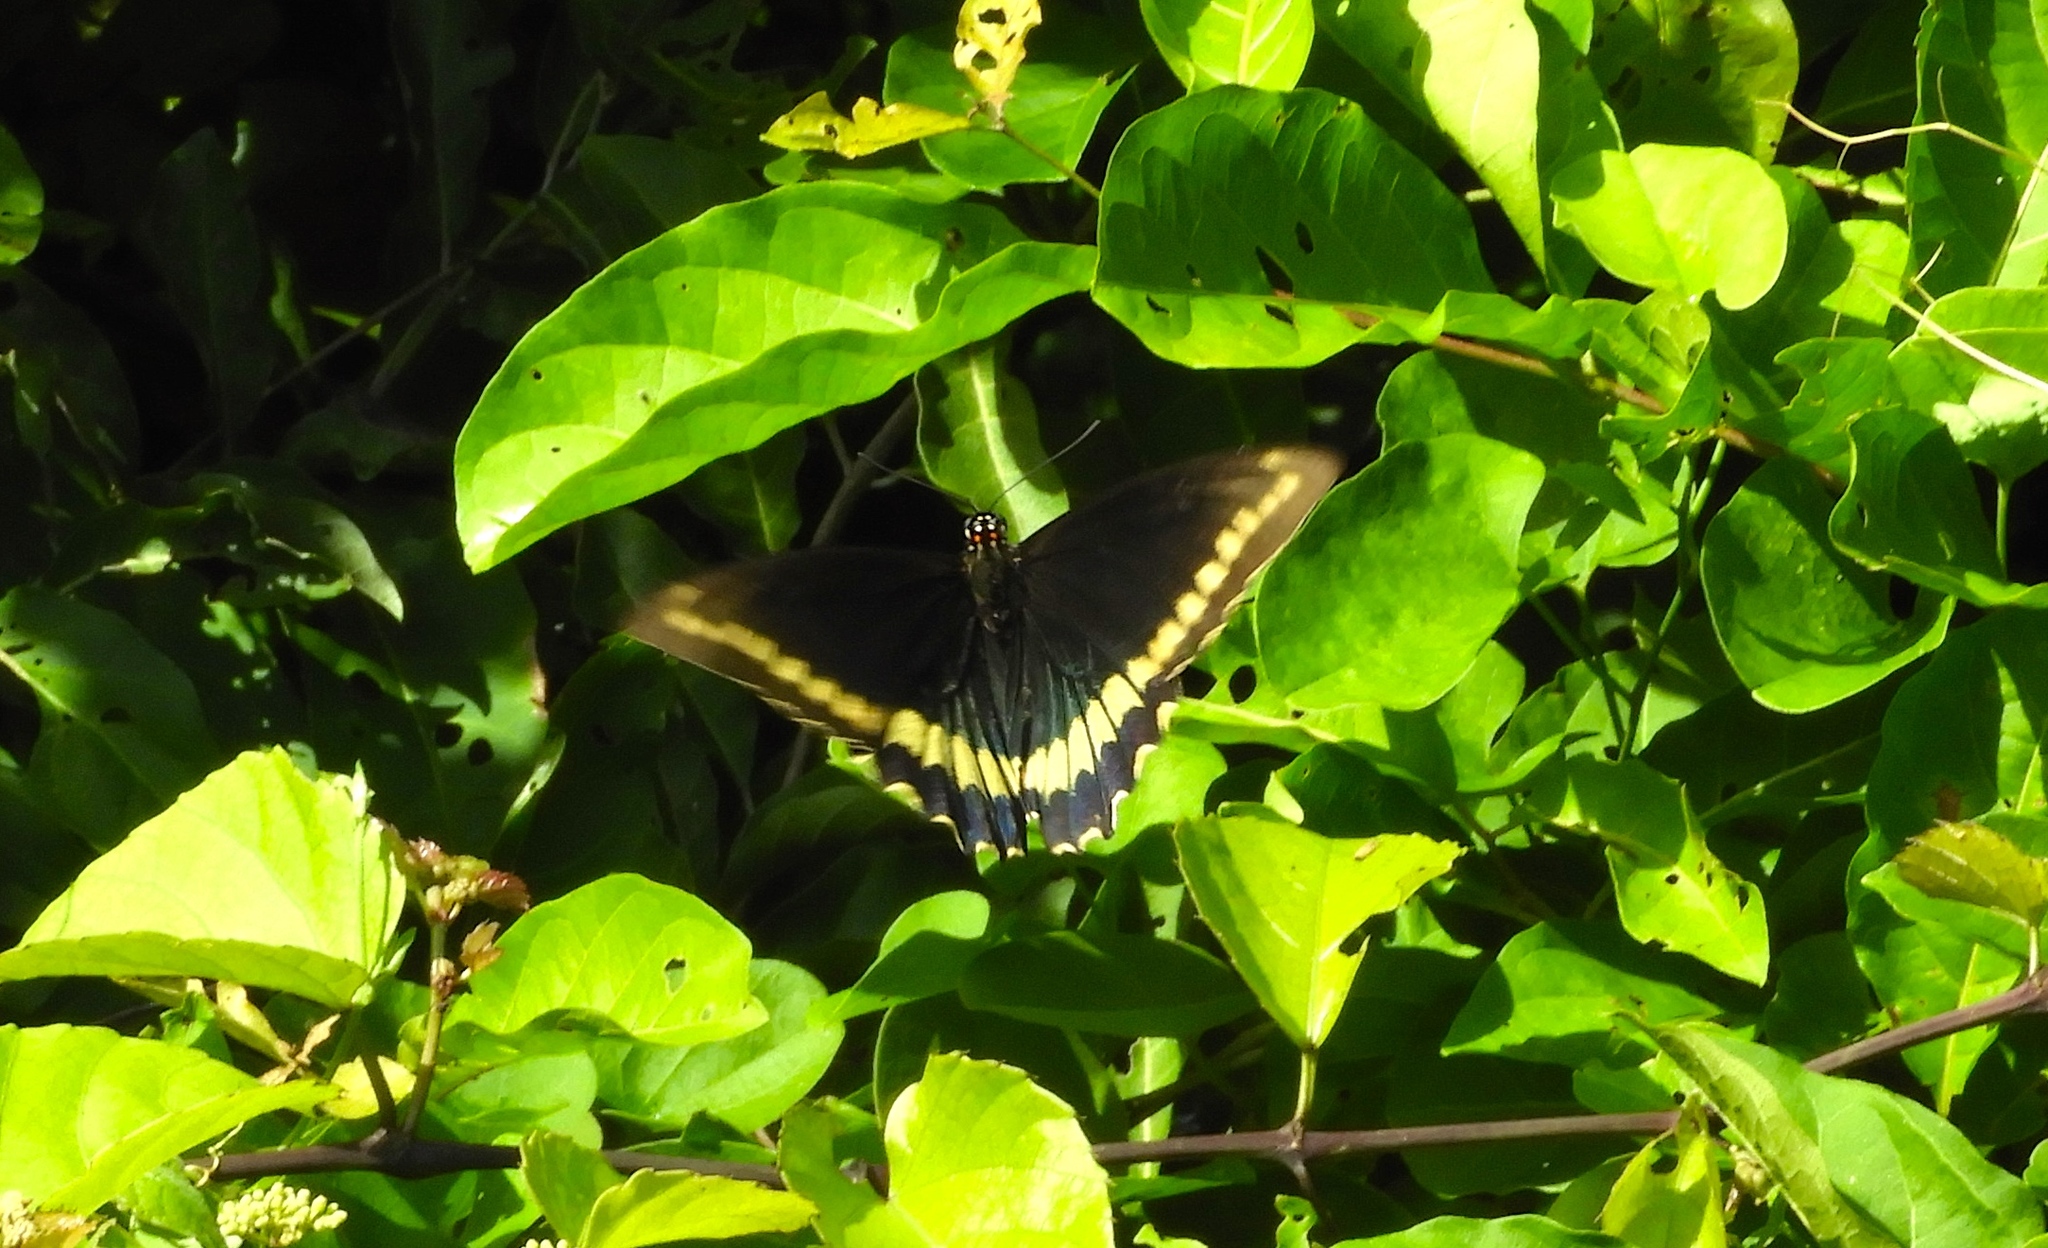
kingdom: Animalia
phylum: Arthropoda
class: Insecta
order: Lepidoptera
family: Papilionidae
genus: Battus
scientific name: Battus polydamas
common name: Polydamas swallowtail
